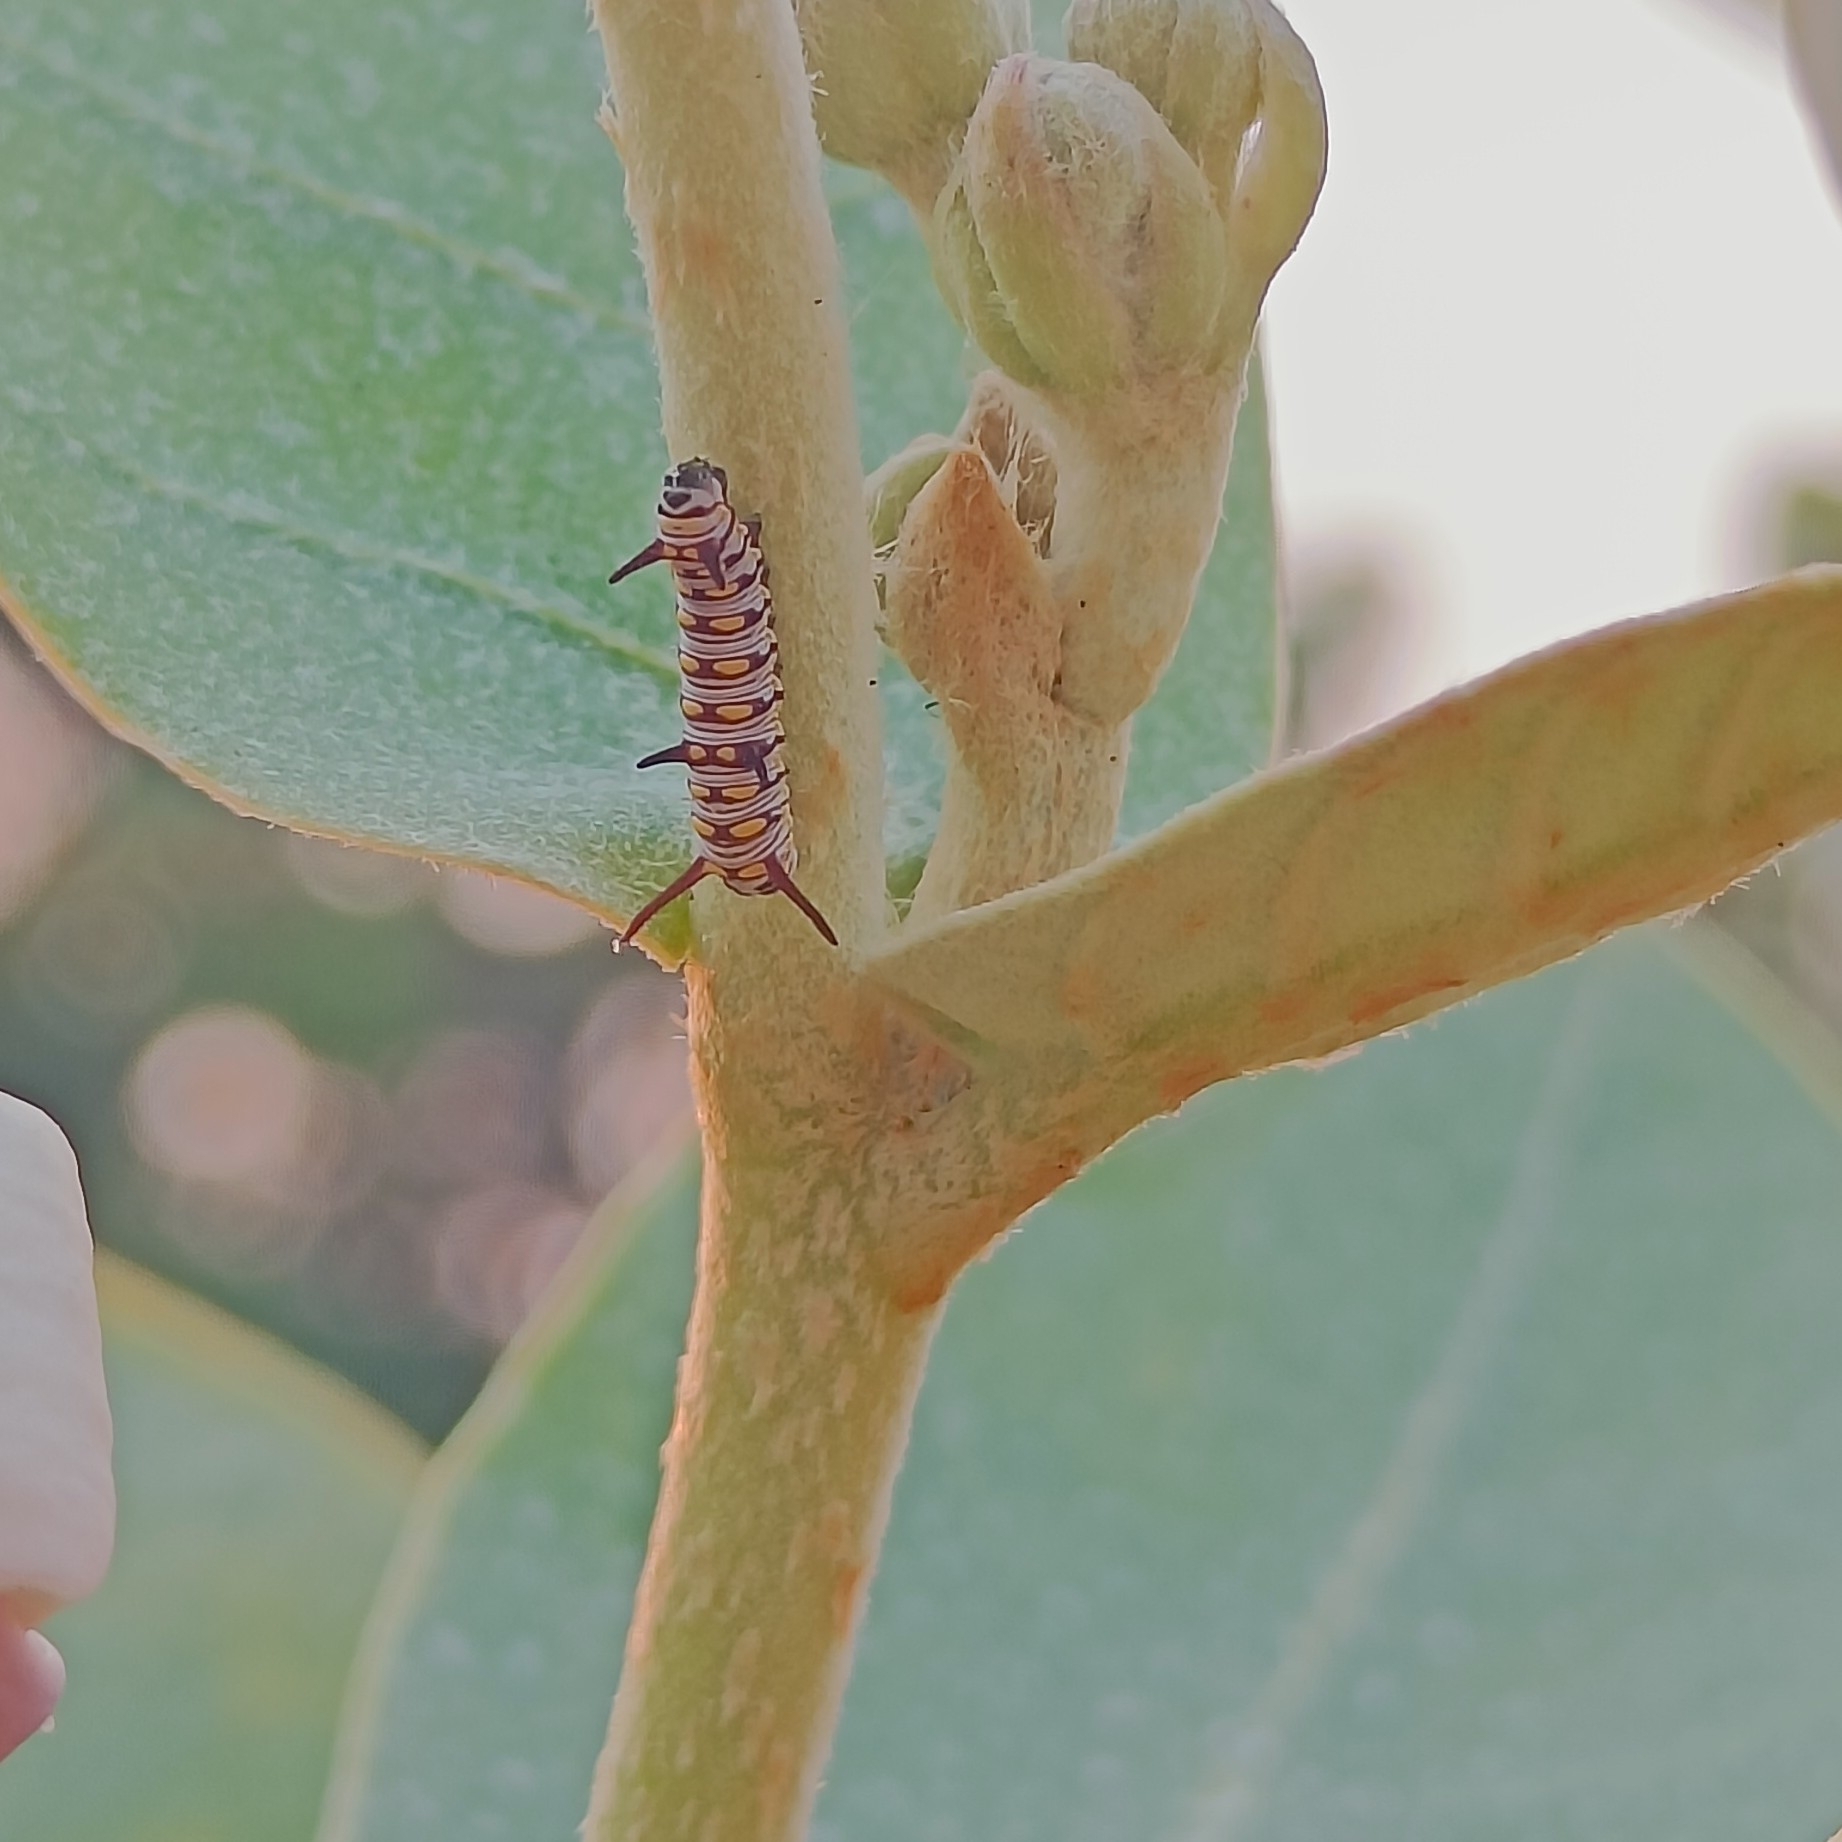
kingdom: Animalia
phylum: Arthropoda
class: Insecta
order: Lepidoptera
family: Nymphalidae
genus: Danaus
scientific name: Danaus chrysippus
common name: Plain tiger
